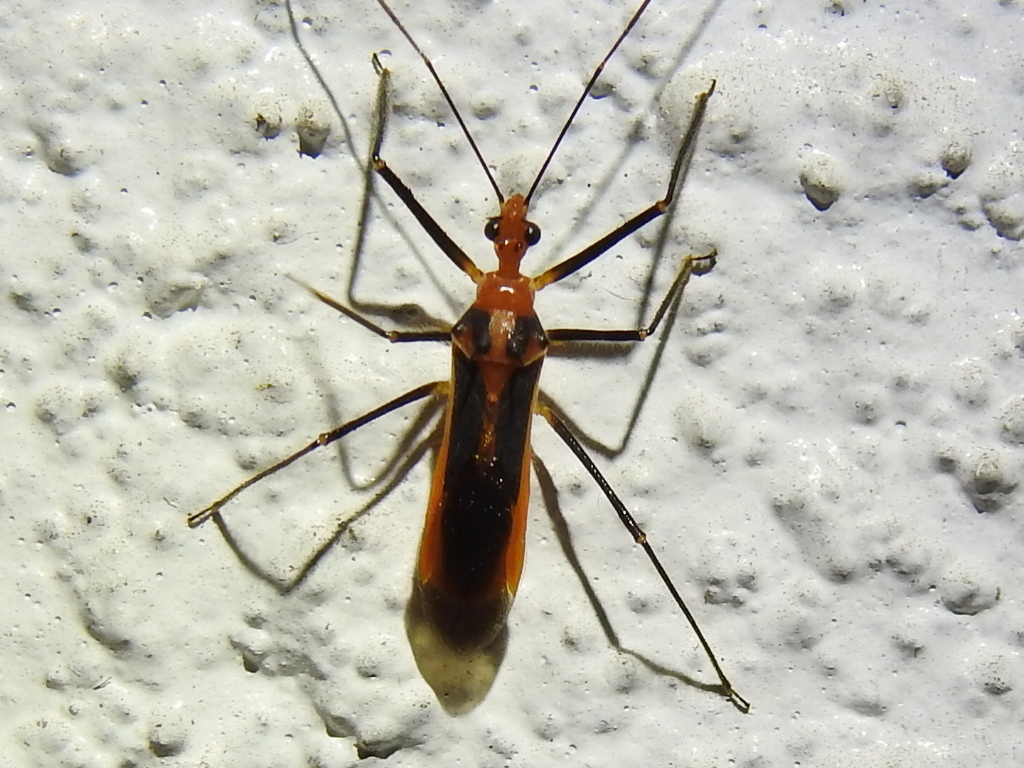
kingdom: Animalia
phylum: Arthropoda
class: Insecta
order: Hemiptera
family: Reduviidae
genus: Repipta
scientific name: Repipta taurus
